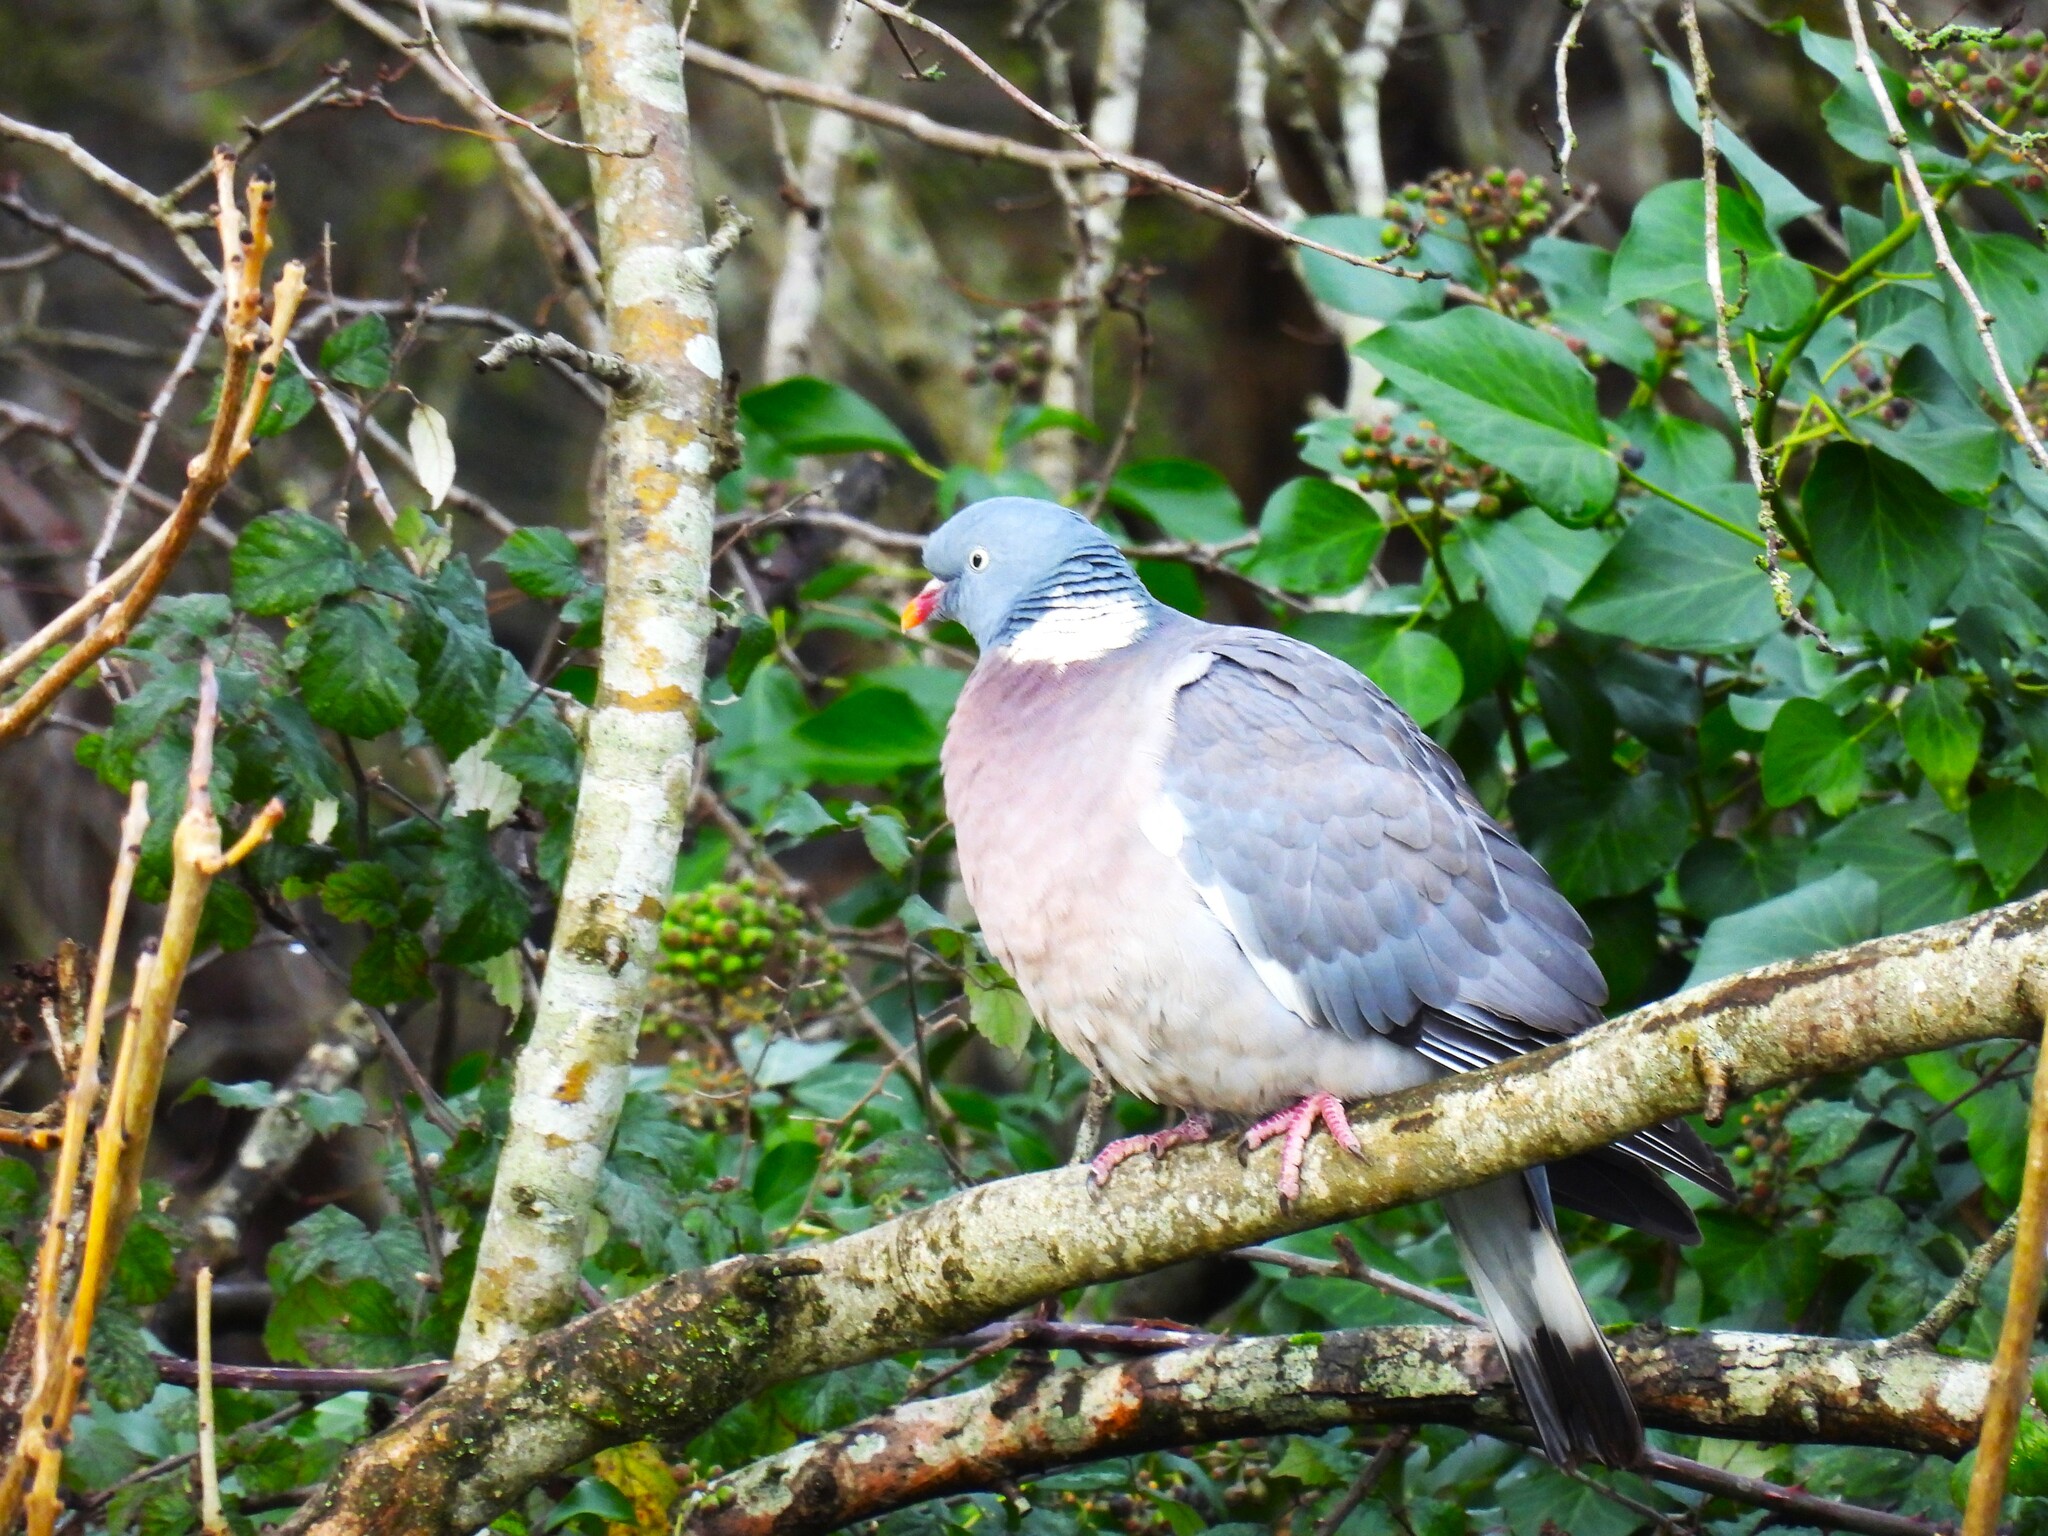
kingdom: Animalia
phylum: Chordata
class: Aves
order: Columbiformes
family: Columbidae
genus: Columba
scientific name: Columba palumbus
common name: Common wood pigeon
